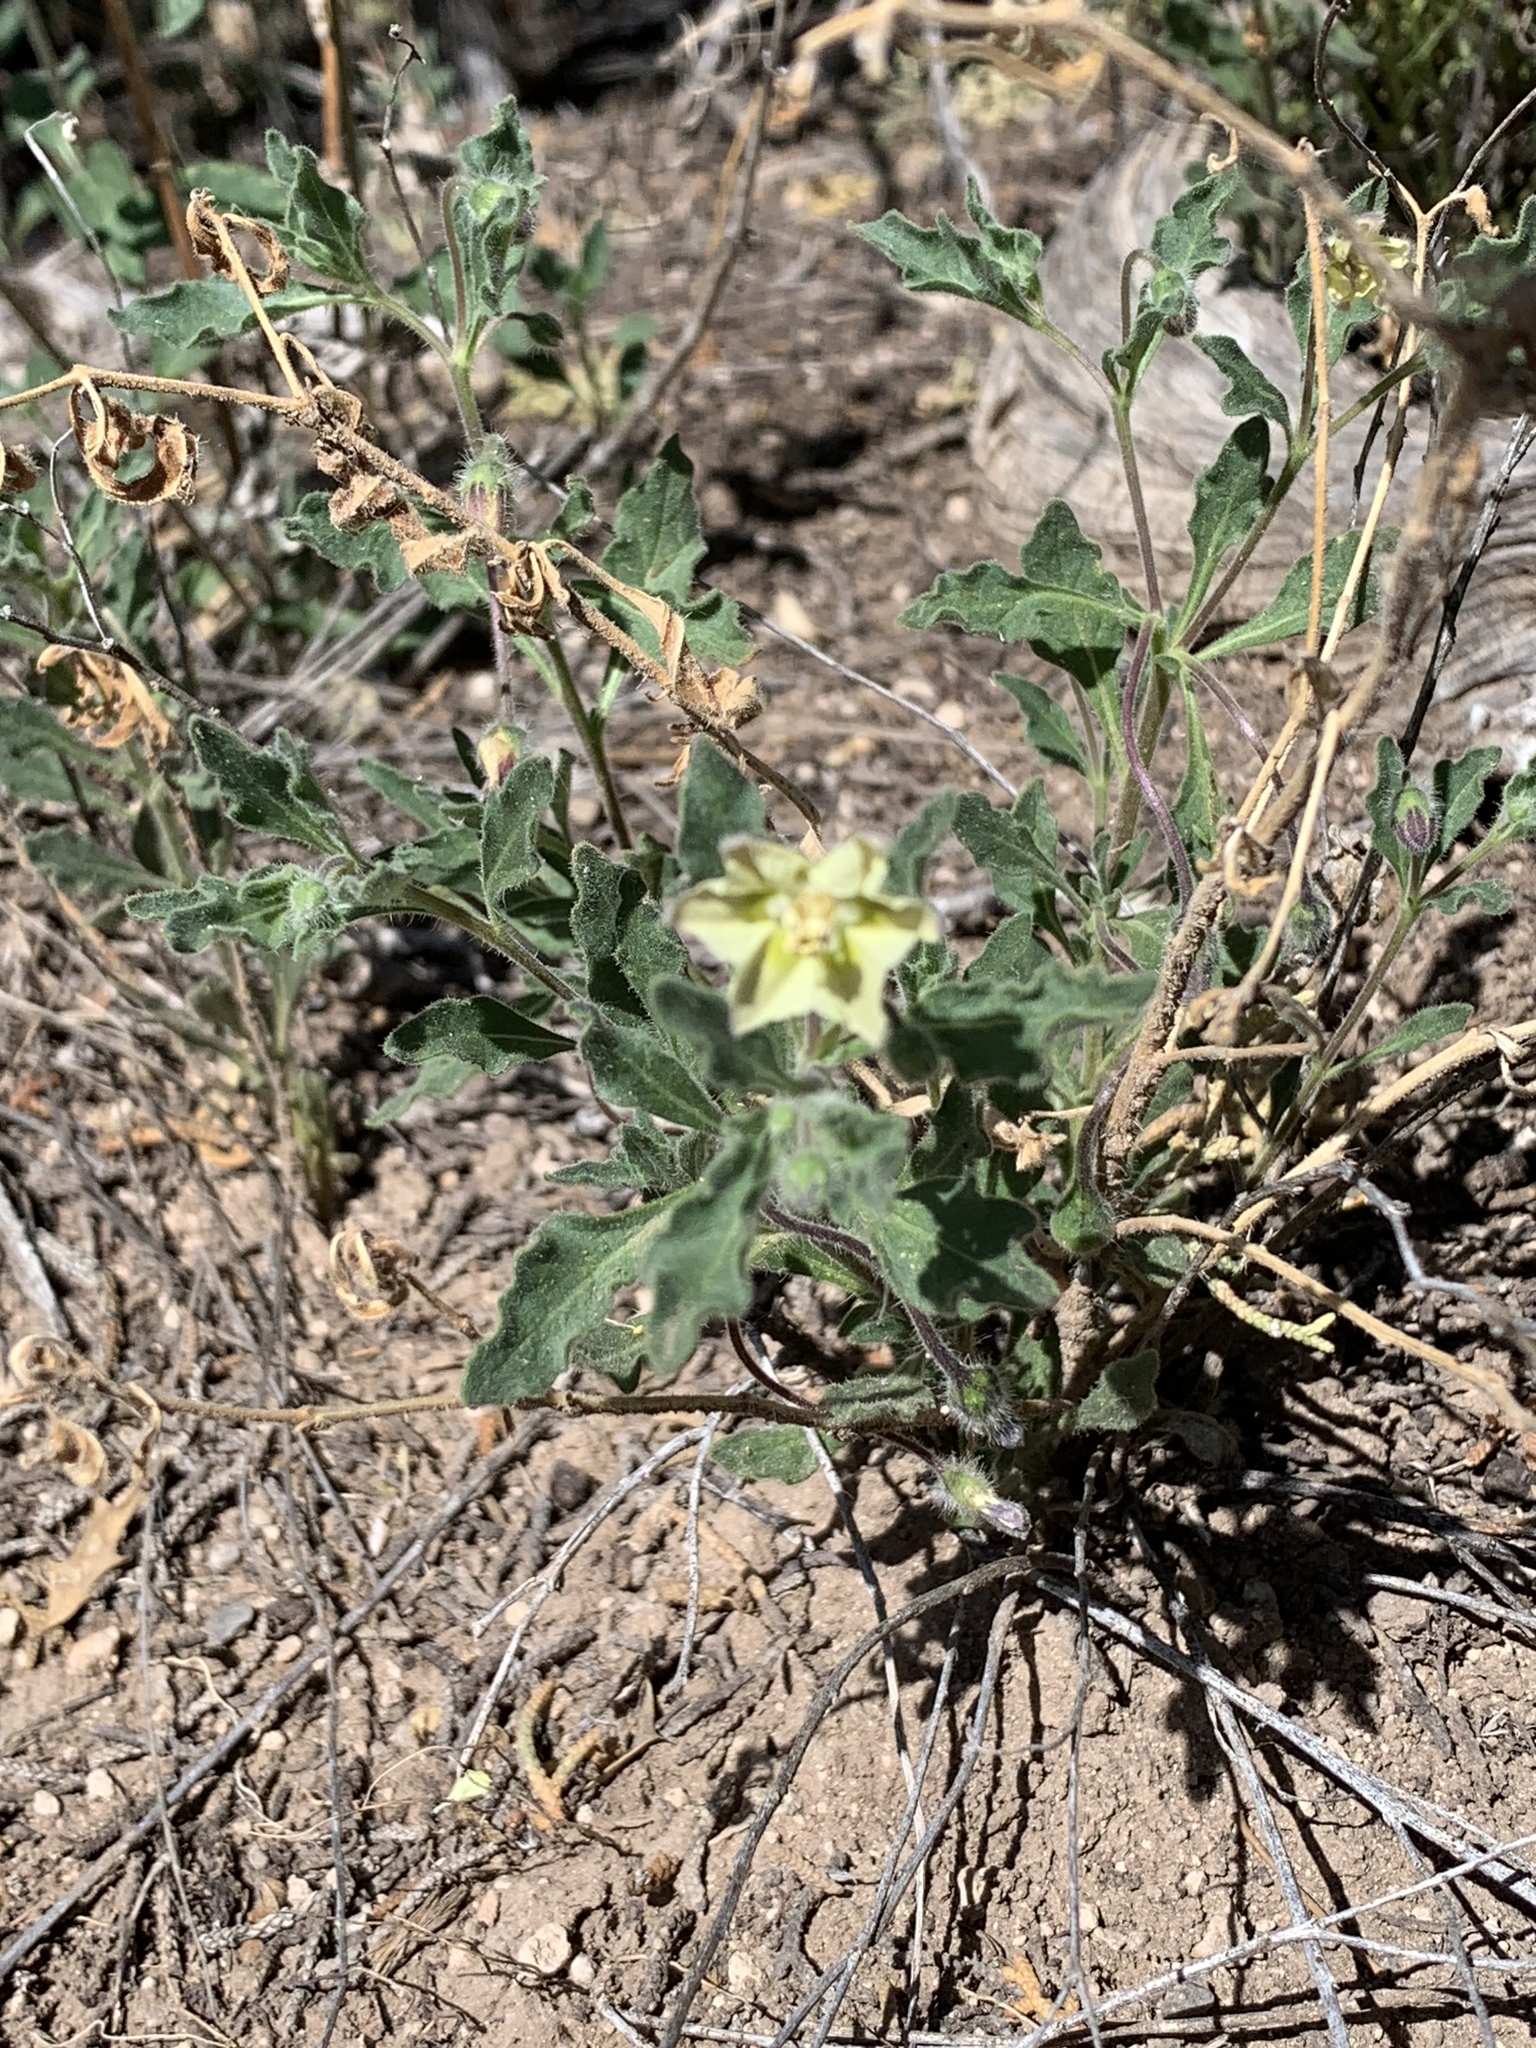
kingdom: Plantae
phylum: Tracheophyta
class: Magnoliopsida
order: Solanales
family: Solanaceae
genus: Chamaesaracha
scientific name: Chamaesaracha sordida
